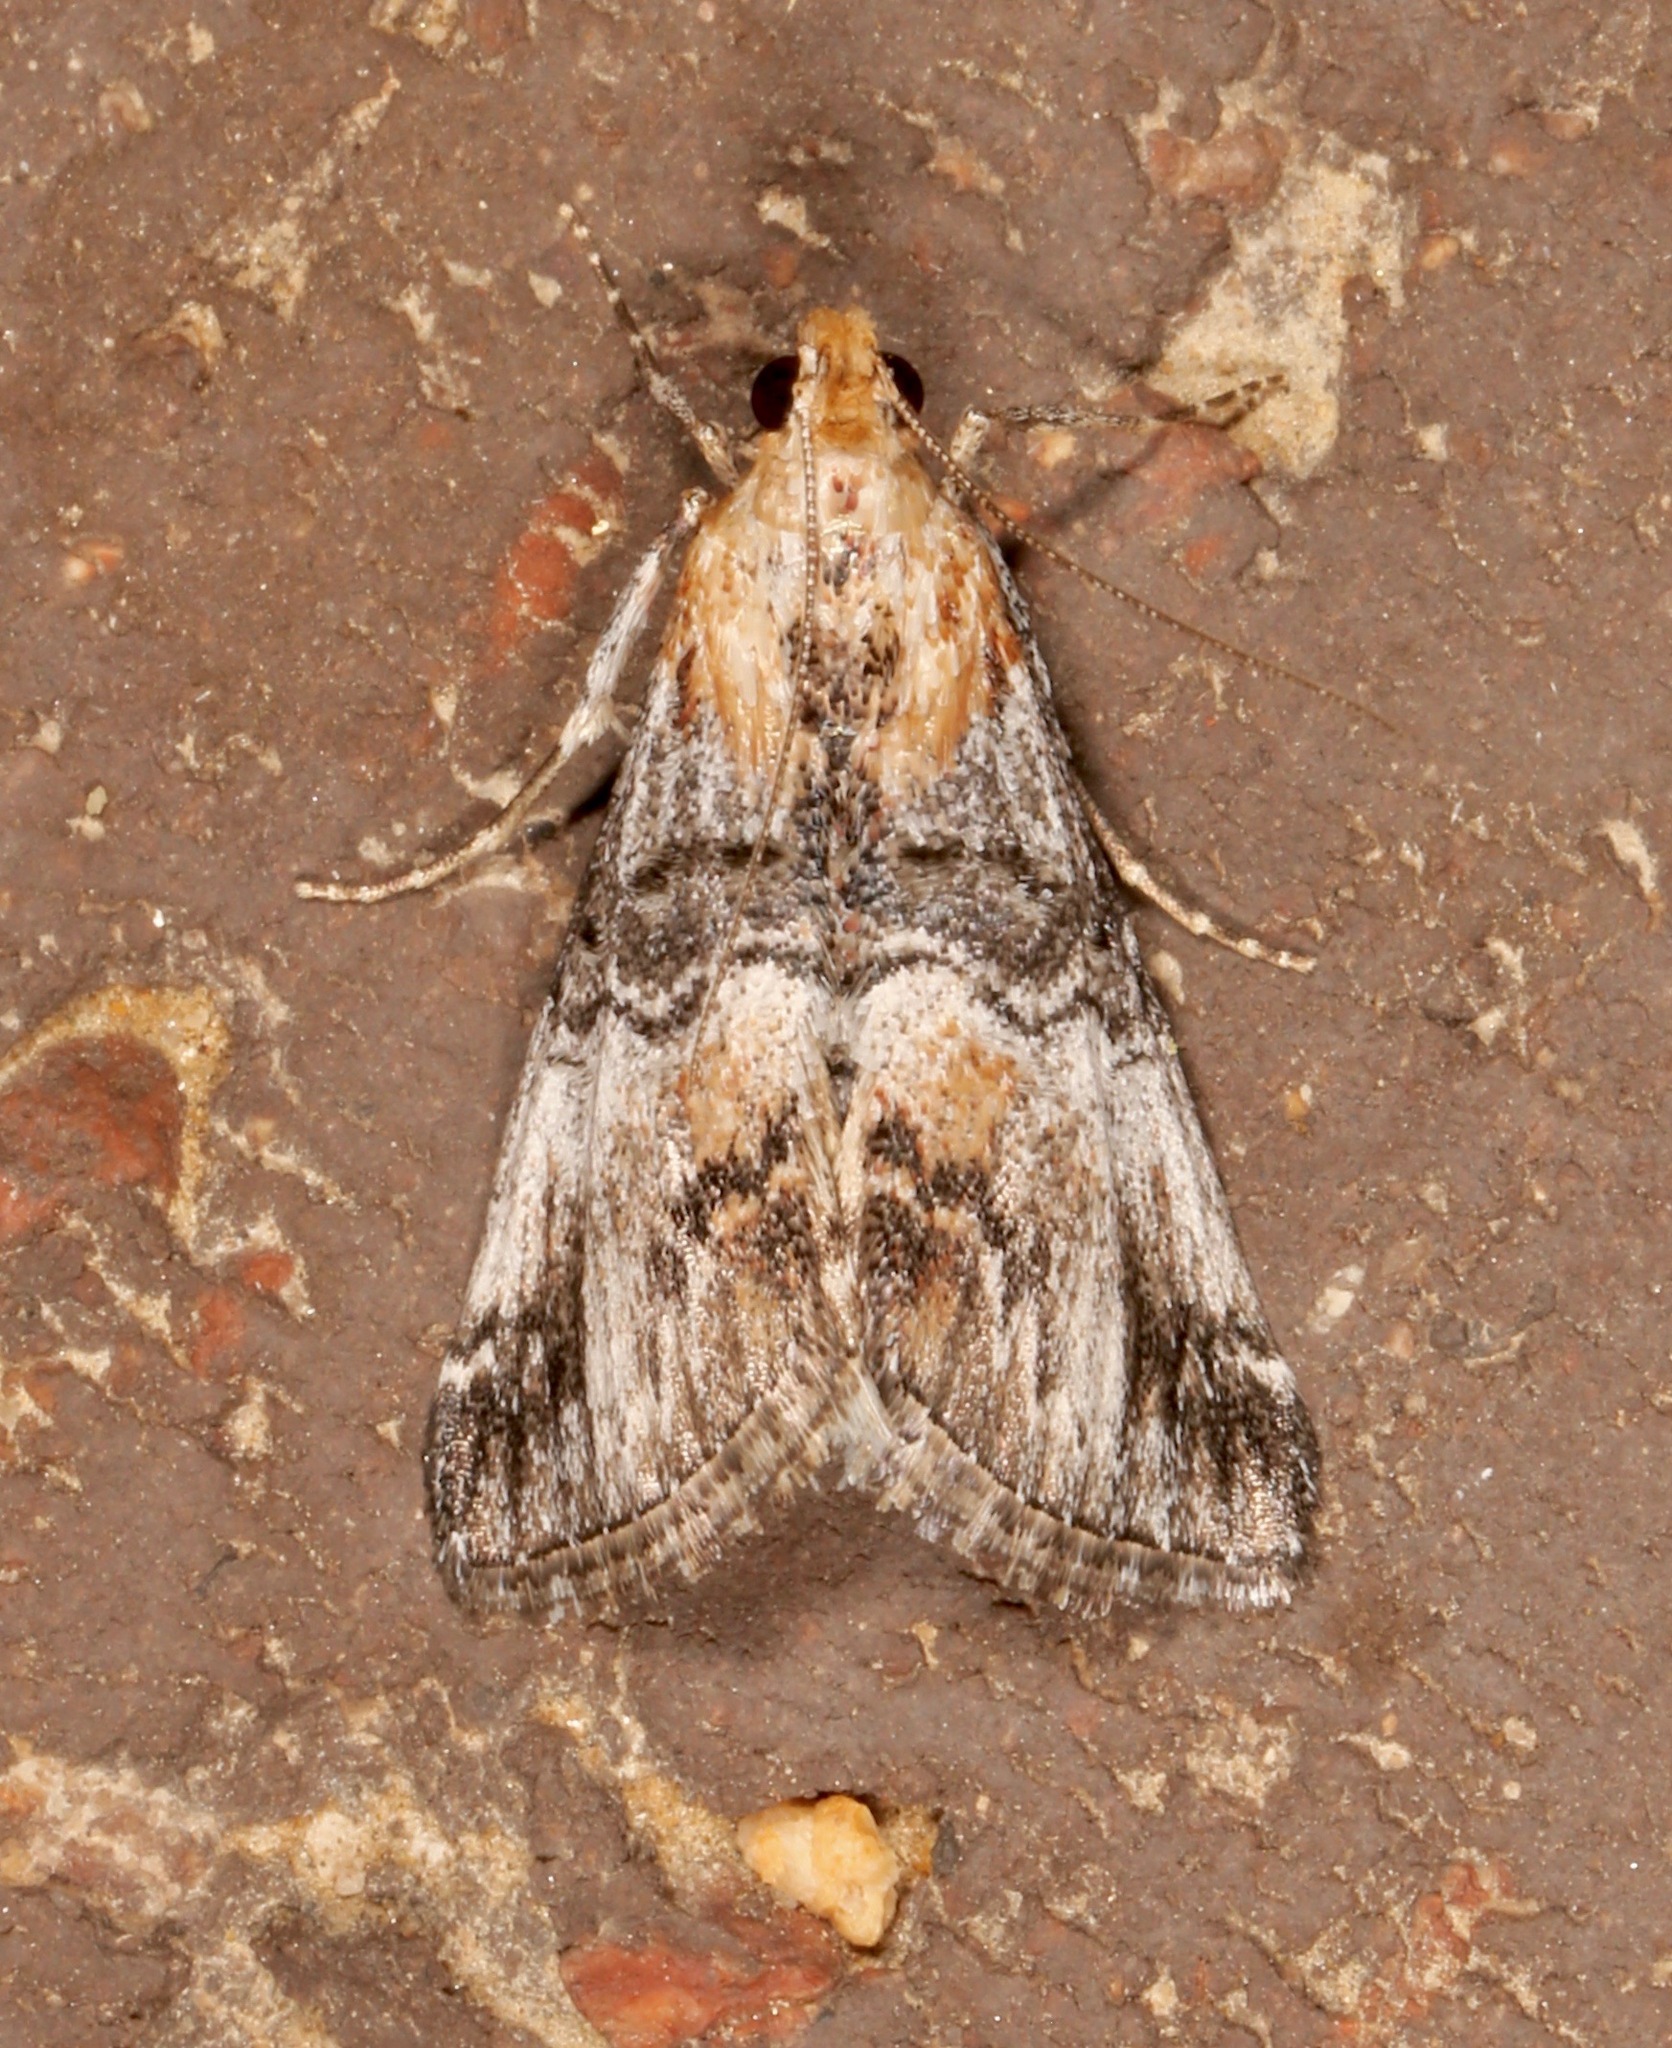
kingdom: Animalia
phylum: Arthropoda
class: Insecta
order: Lepidoptera
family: Pyralidae
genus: Toripalpus
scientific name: Toripalpus trabalis
